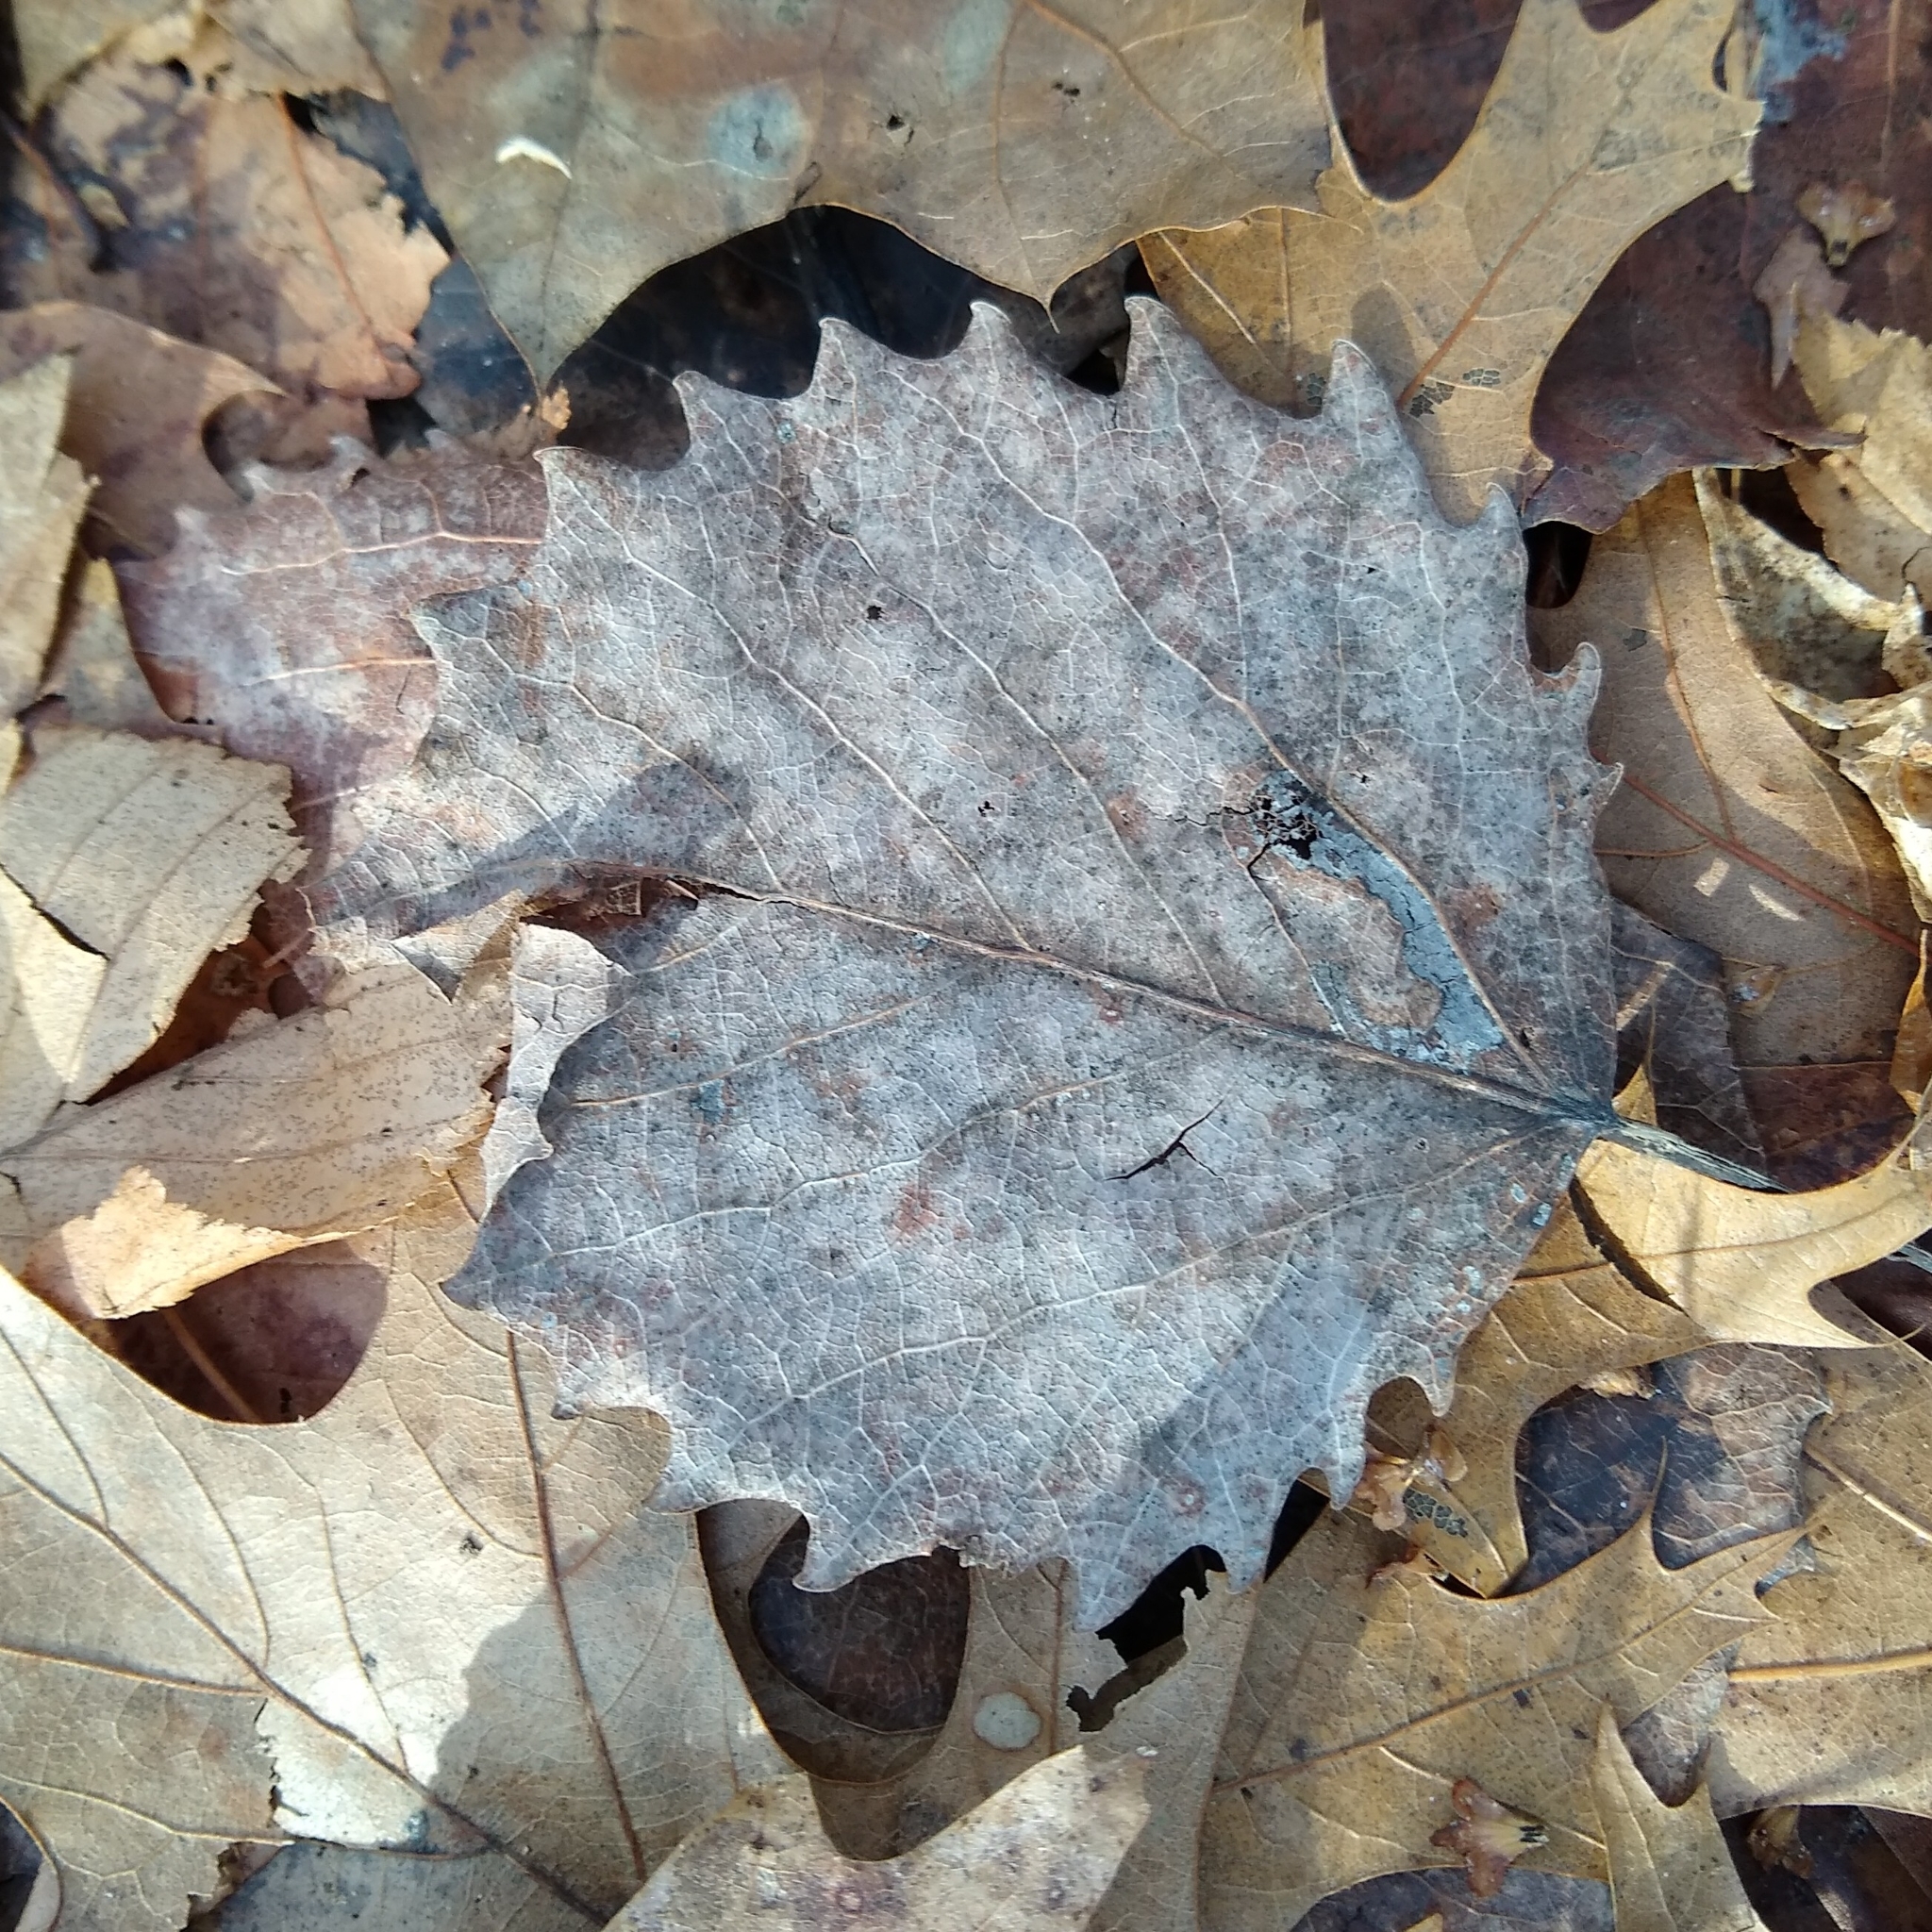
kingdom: Plantae
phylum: Tracheophyta
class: Magnoliopsida
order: Malpighiales
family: Salicaceae
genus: Populus
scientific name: Populus grandidentata
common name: Bigtooth aspen
